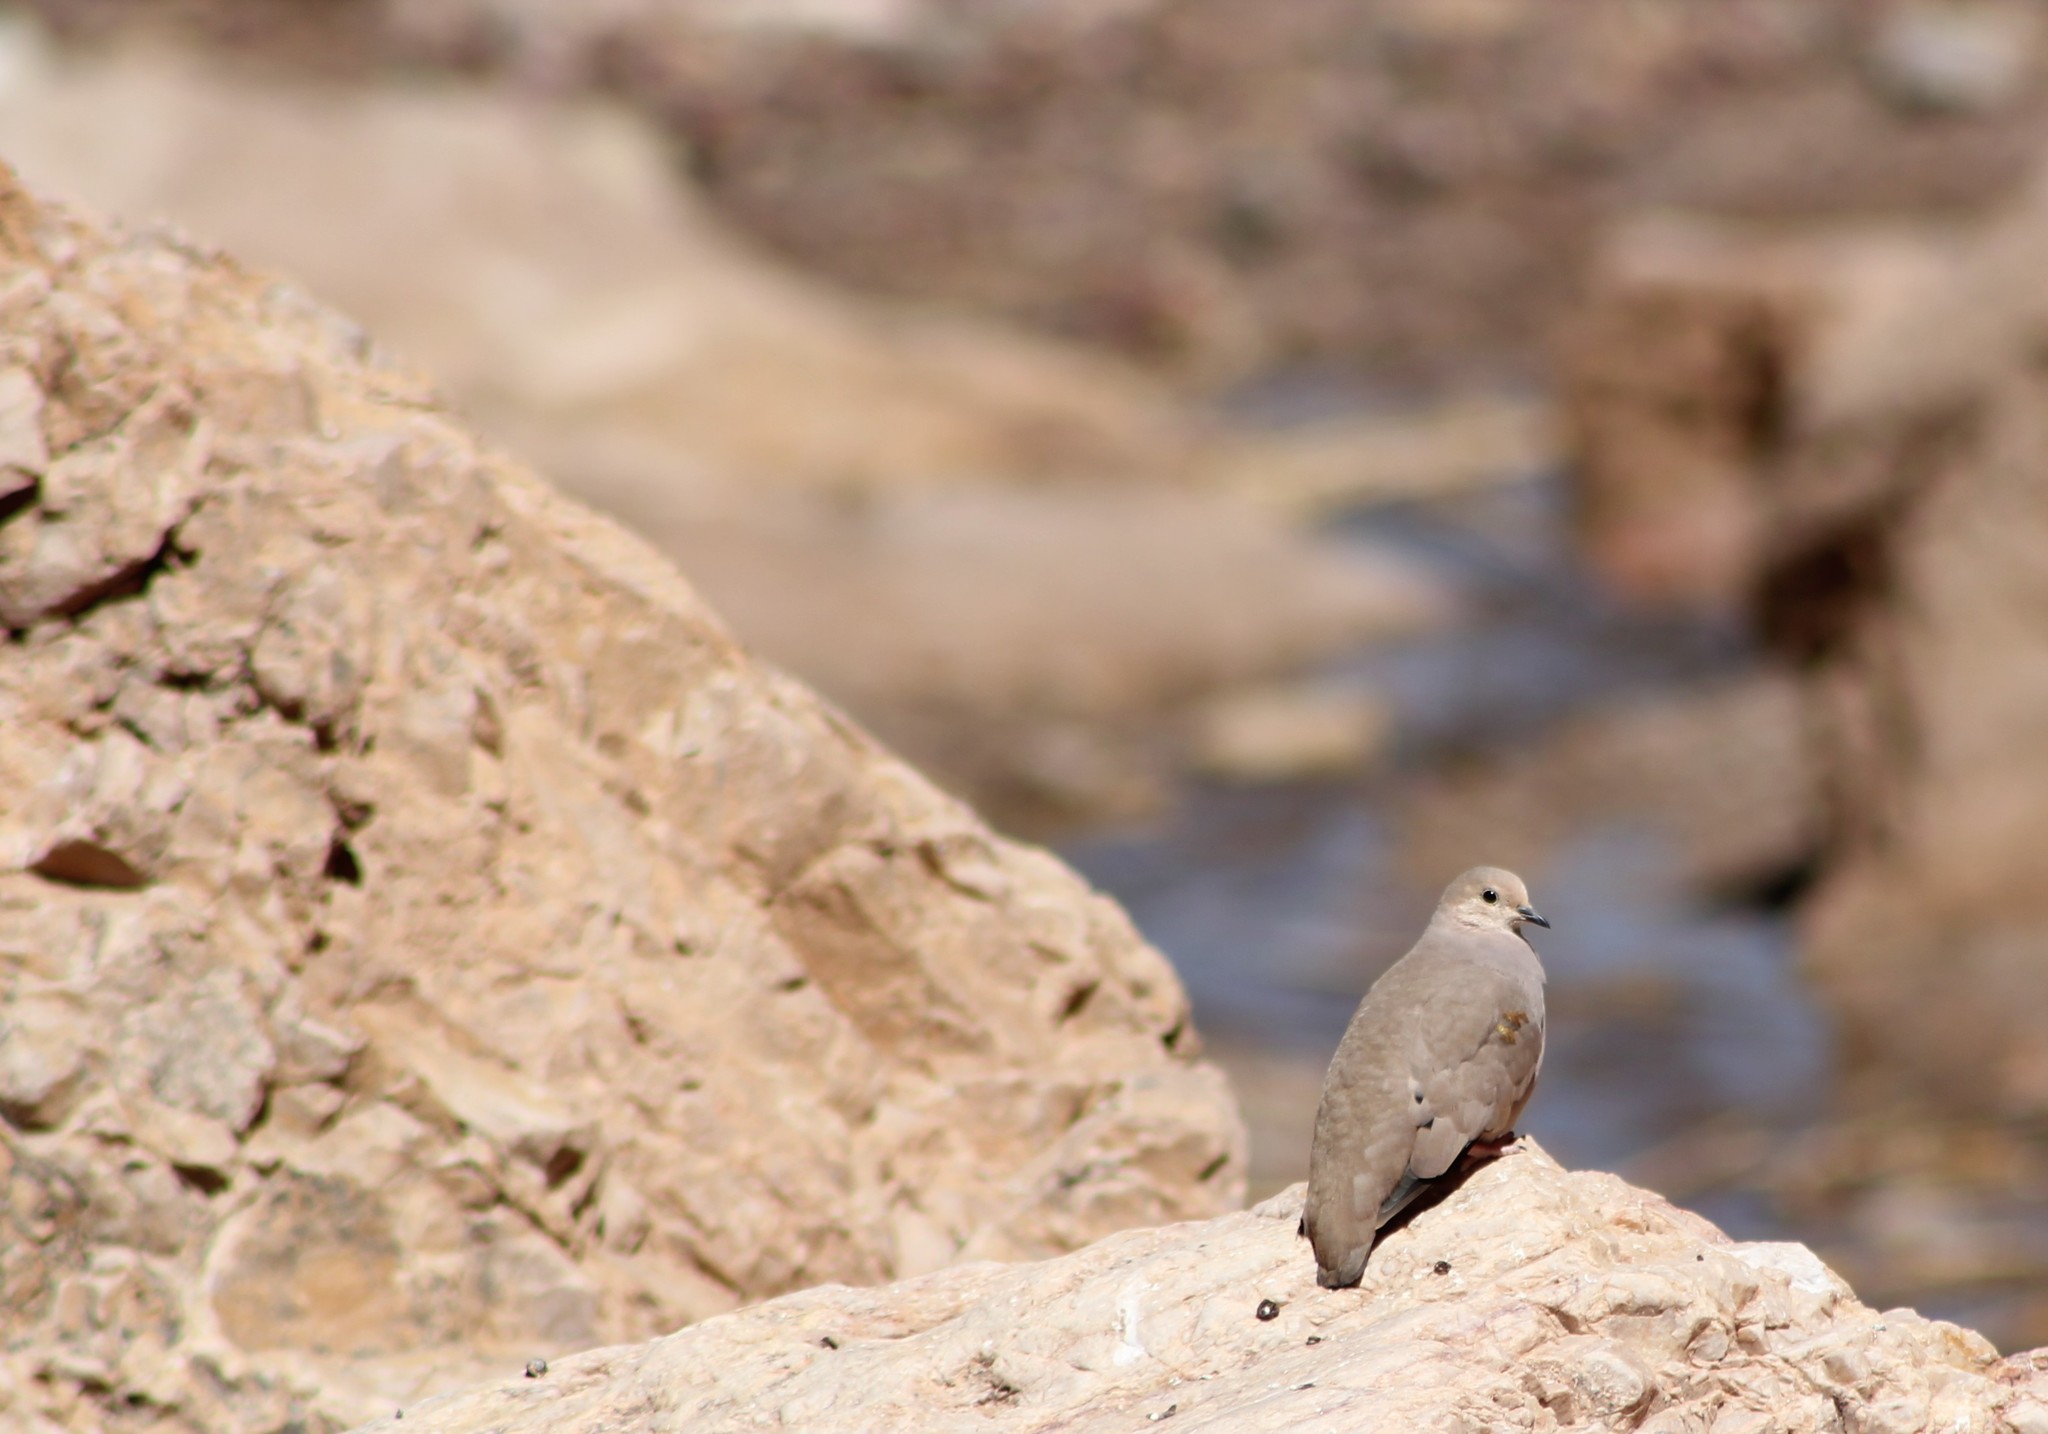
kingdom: Animalia
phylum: Chordata
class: Aves
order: Columbiformes
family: Columbidae
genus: Metriopelia
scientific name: Metriopelia aymara
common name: Golden-spotted ground dove
